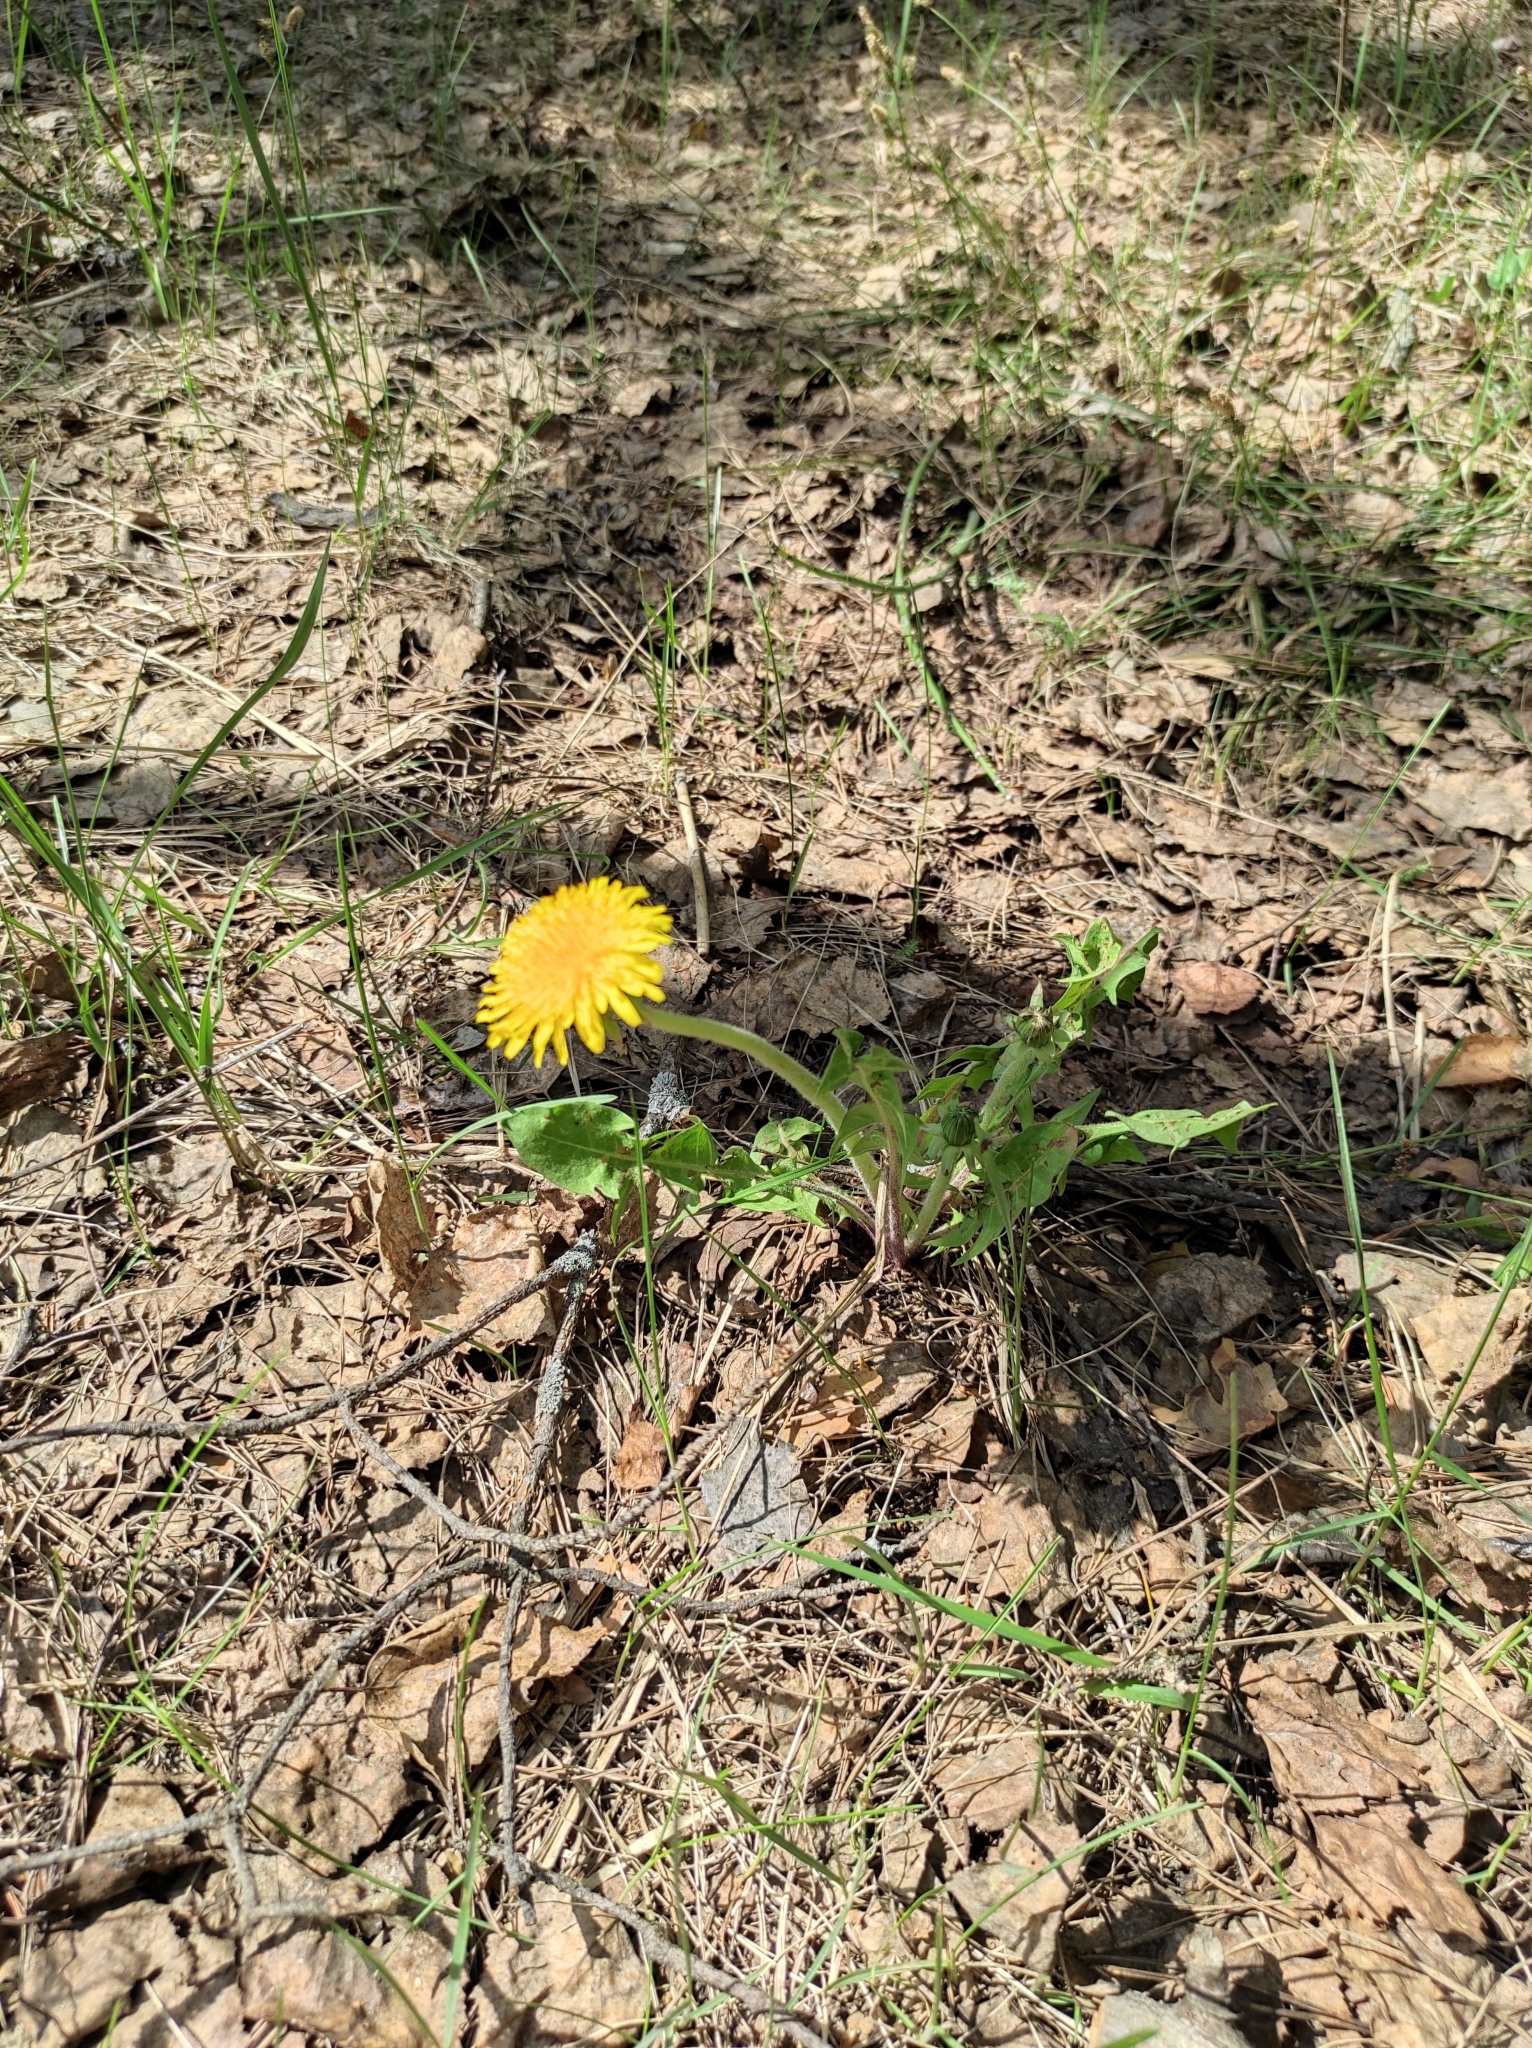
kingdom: Plantae
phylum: Tracheophyta
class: Magnoliopsida
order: Asterales
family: Asteraceae
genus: Taraxacum
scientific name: Taraxacum officinale
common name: Common dandelion
